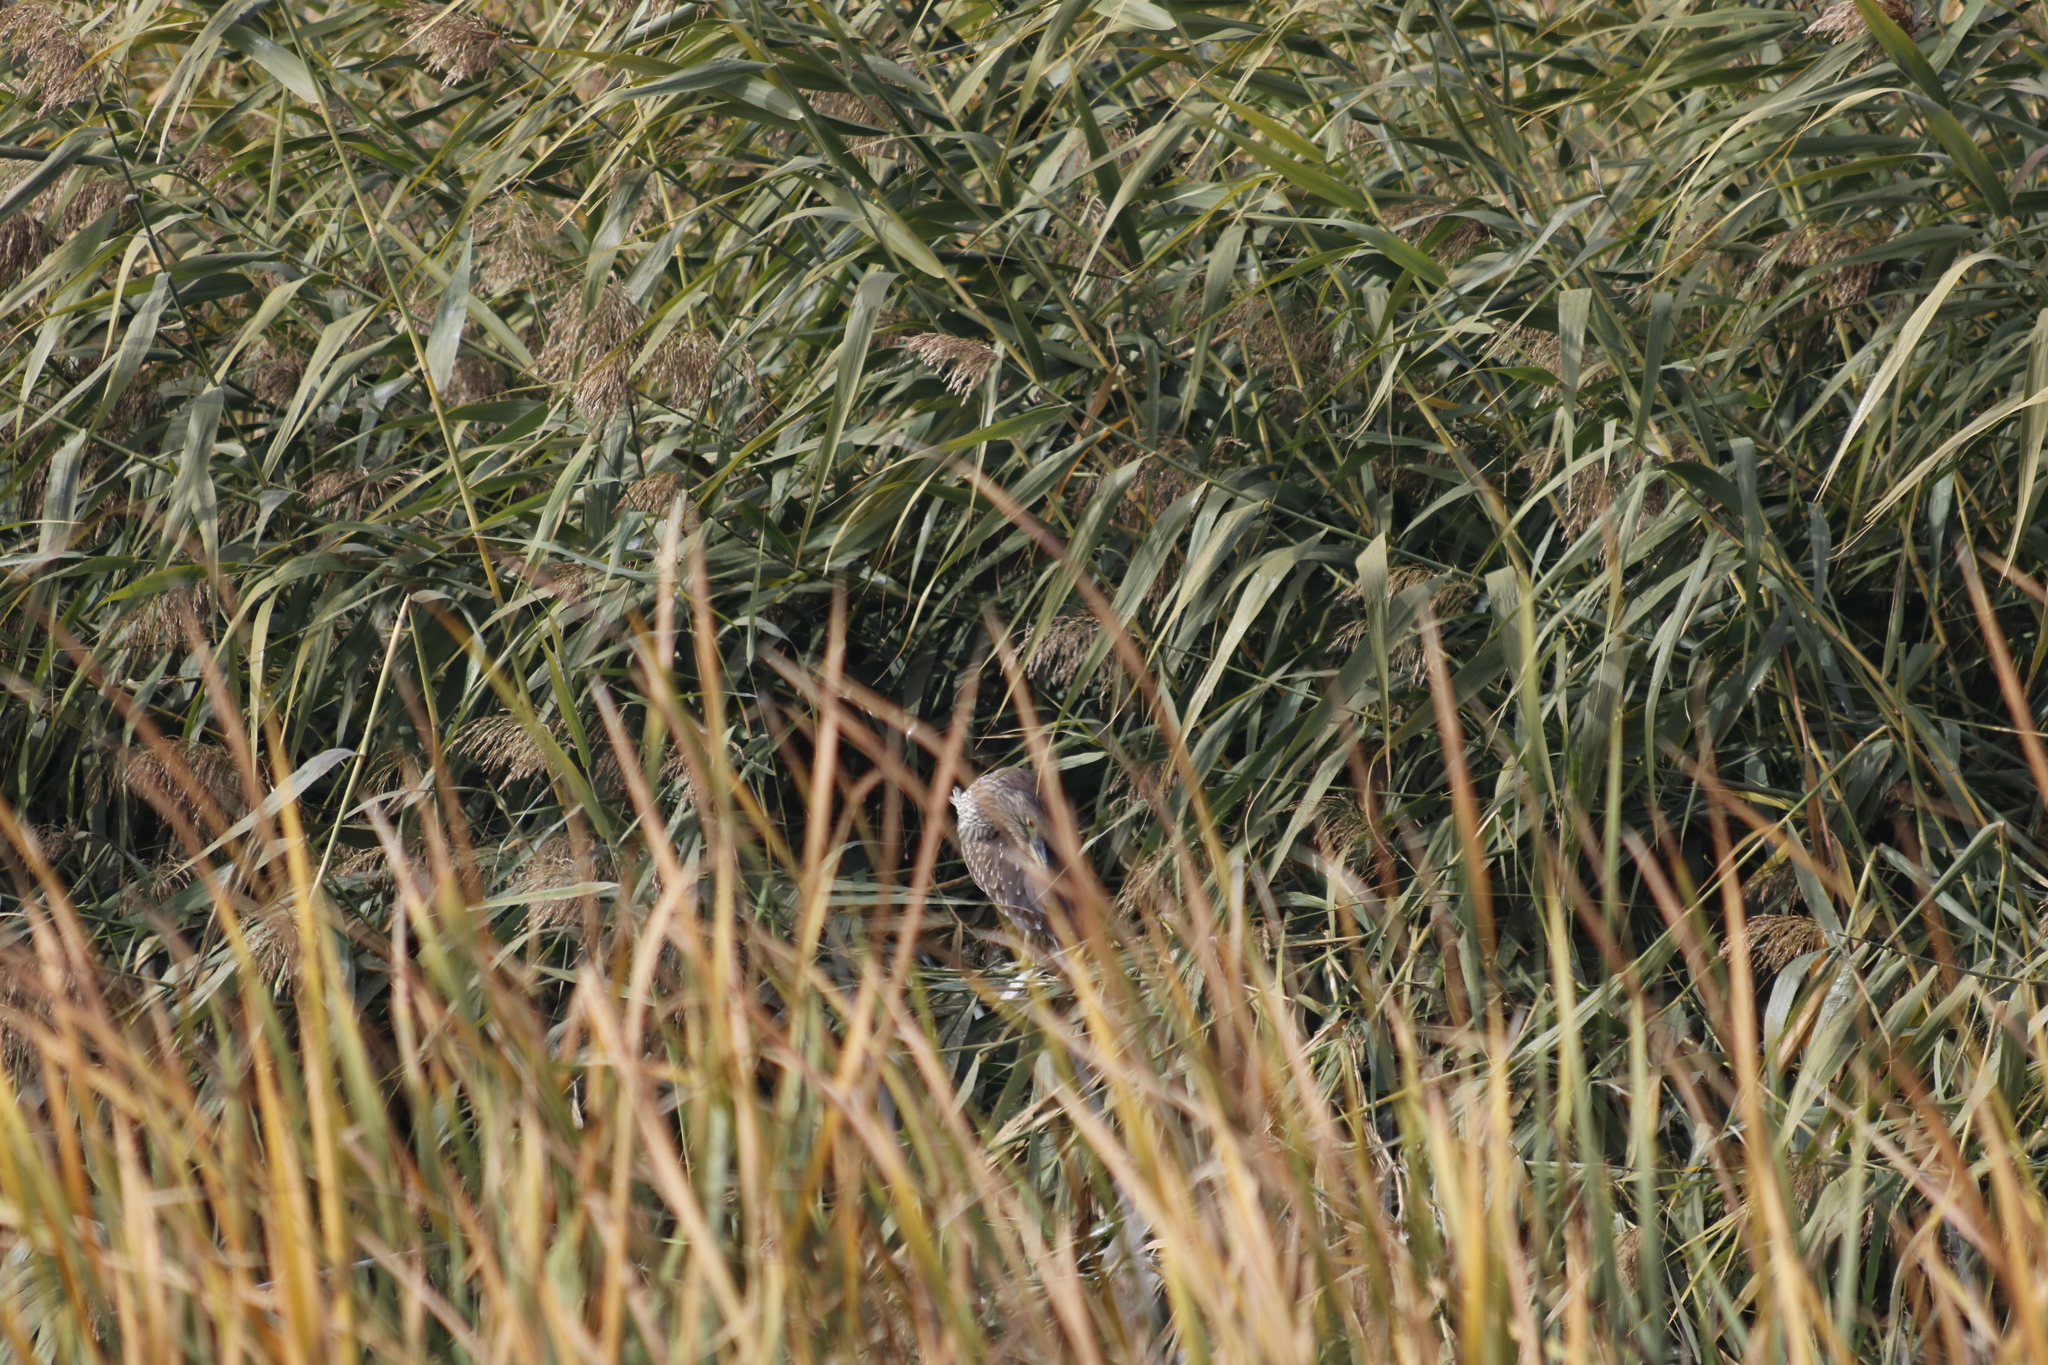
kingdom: Animalia
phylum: Chordata
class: Aves
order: Pelecaniformes
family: Ardeidae
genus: Nycticorax
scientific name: Nycticorax nycticorax
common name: Black-crowned night heron
